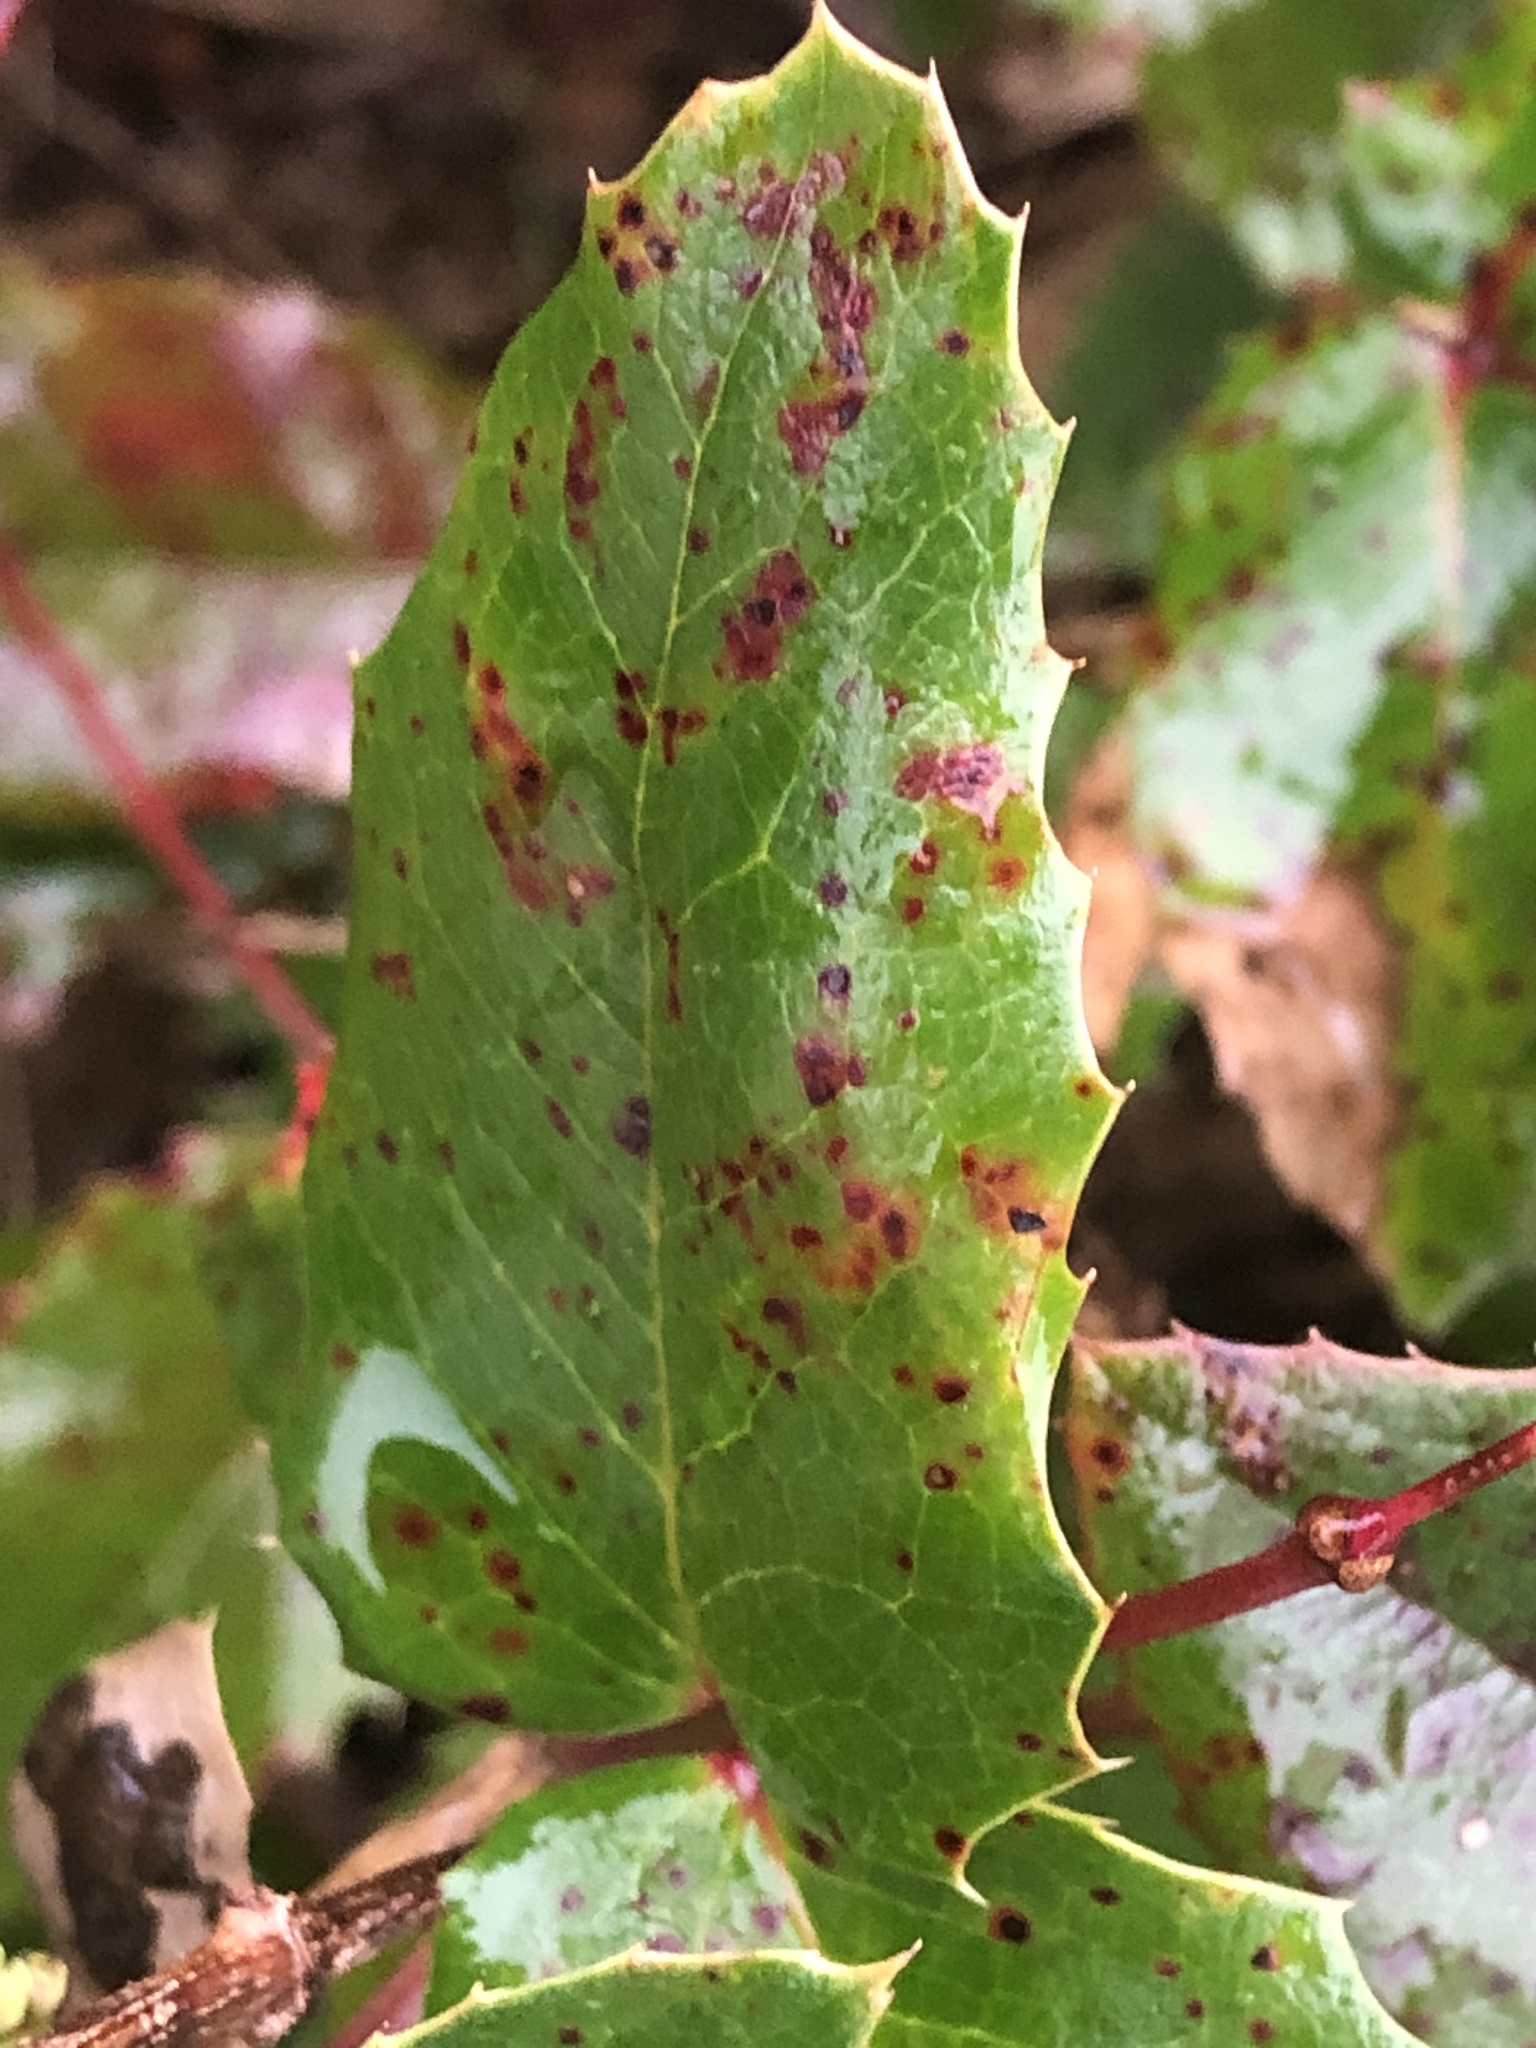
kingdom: Fungi
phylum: Basidiomycota
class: Pucciniomycetes
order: Pucciniales
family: Pucciniaceae
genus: Cumminsiella
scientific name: Cumminsiella mirabilissima
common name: Mahonia rust
